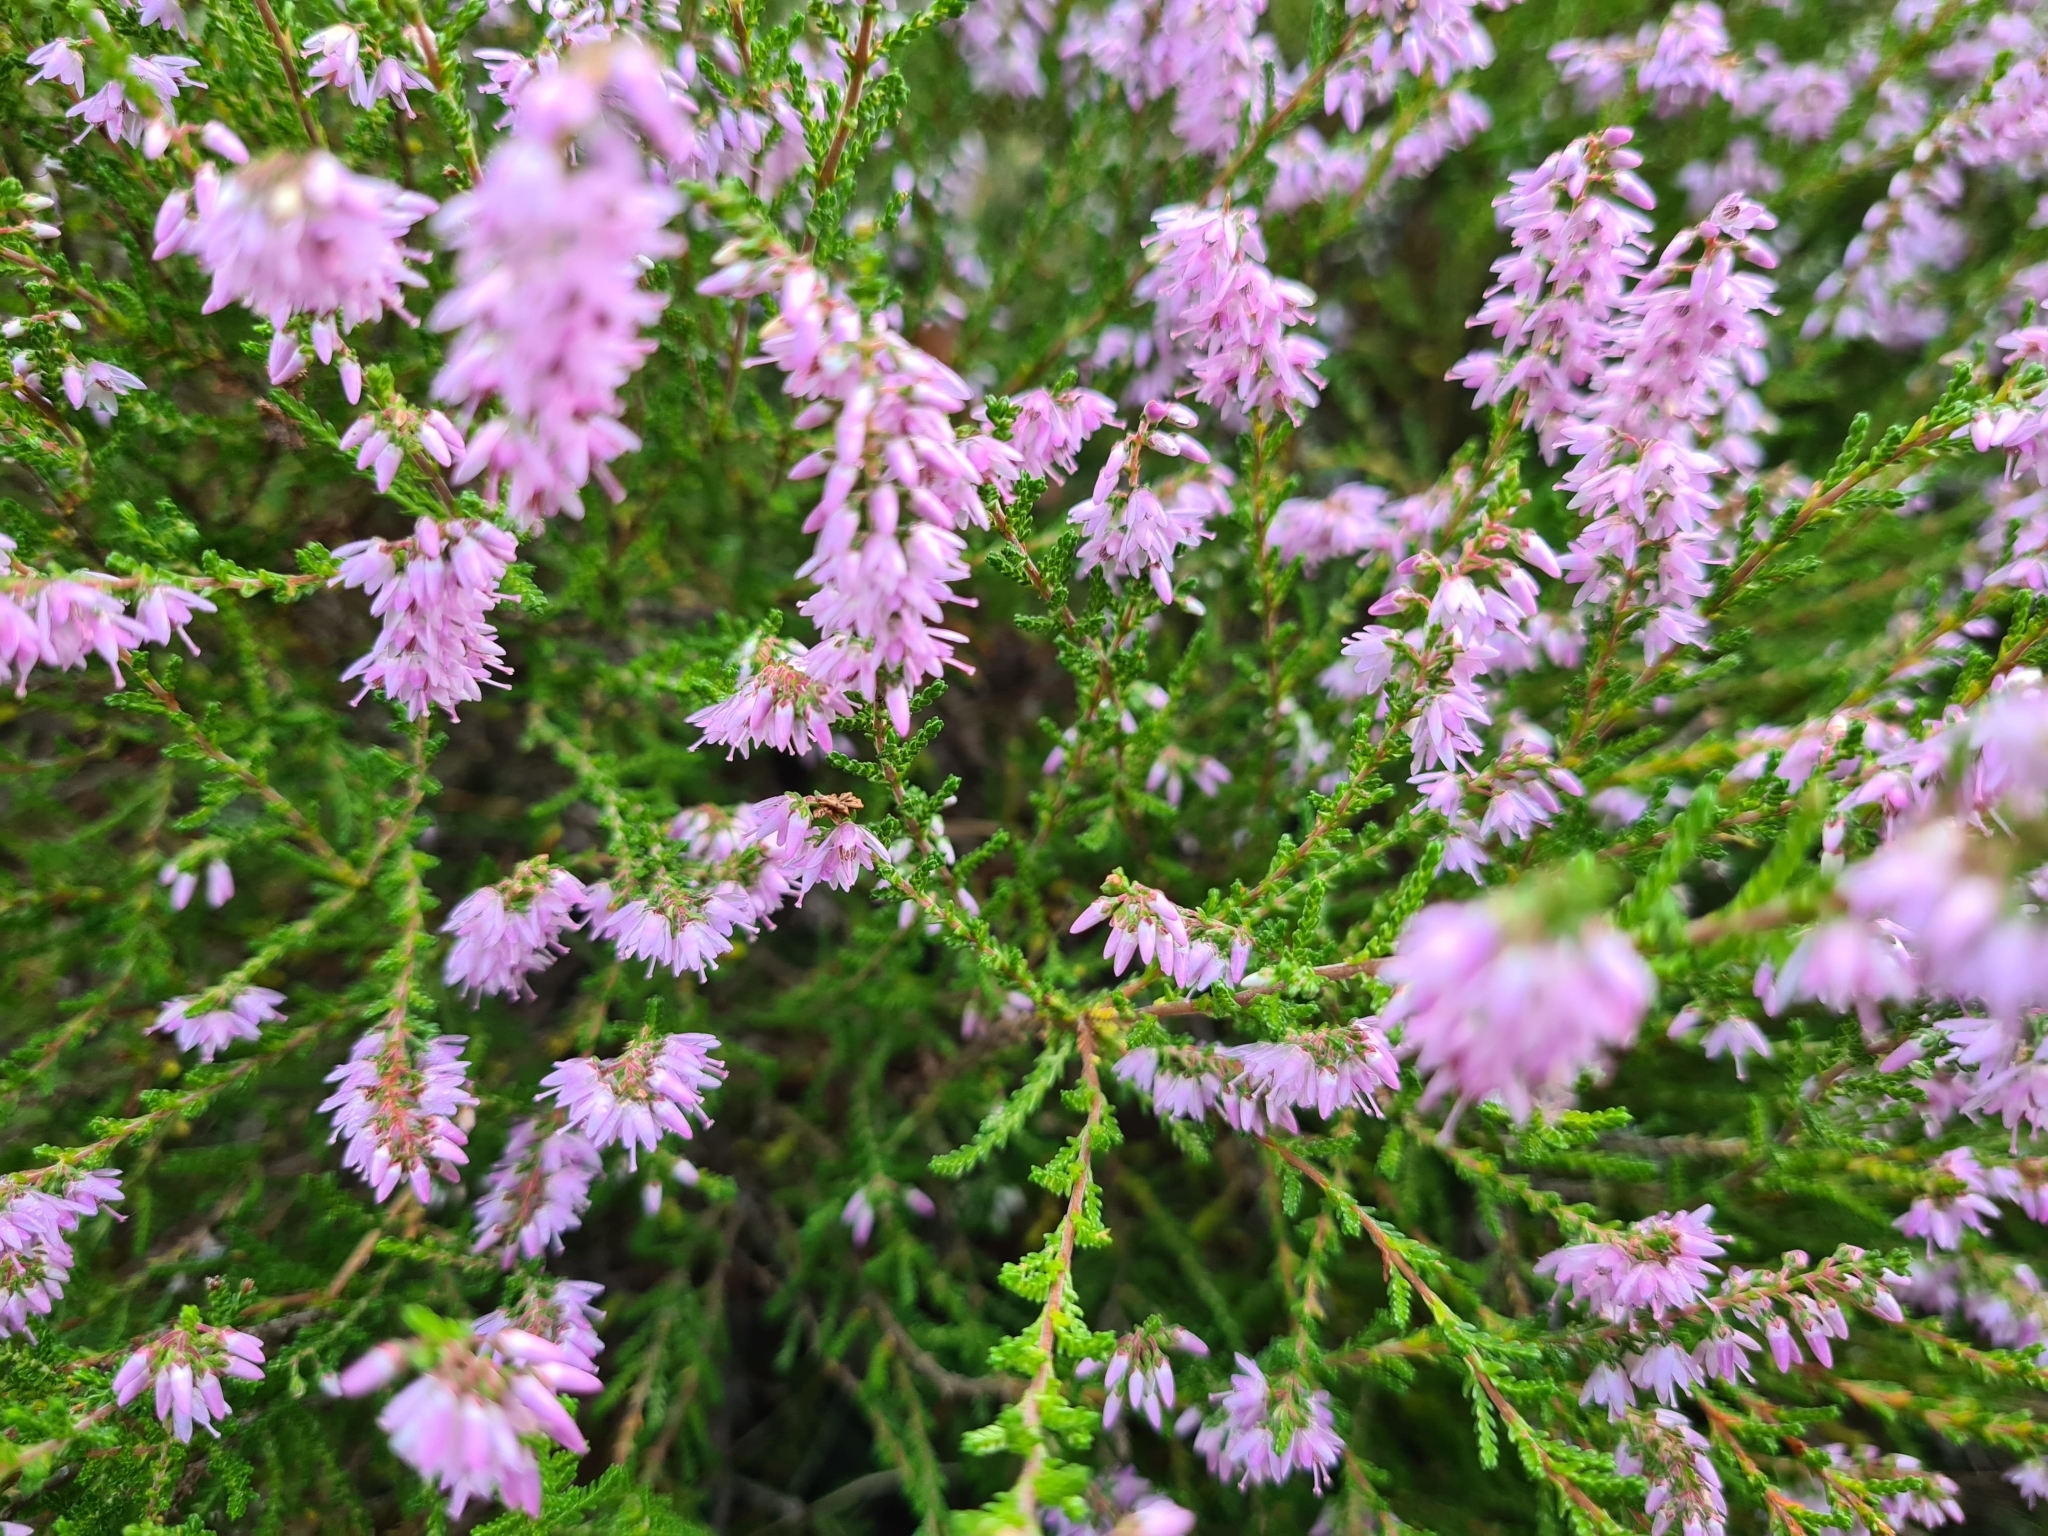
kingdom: Plantae
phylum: Tracheophyta
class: Magnoliopsida
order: Ericales
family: Ericaceae
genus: Calluna
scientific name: Calluna vulgaris
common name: Heather
